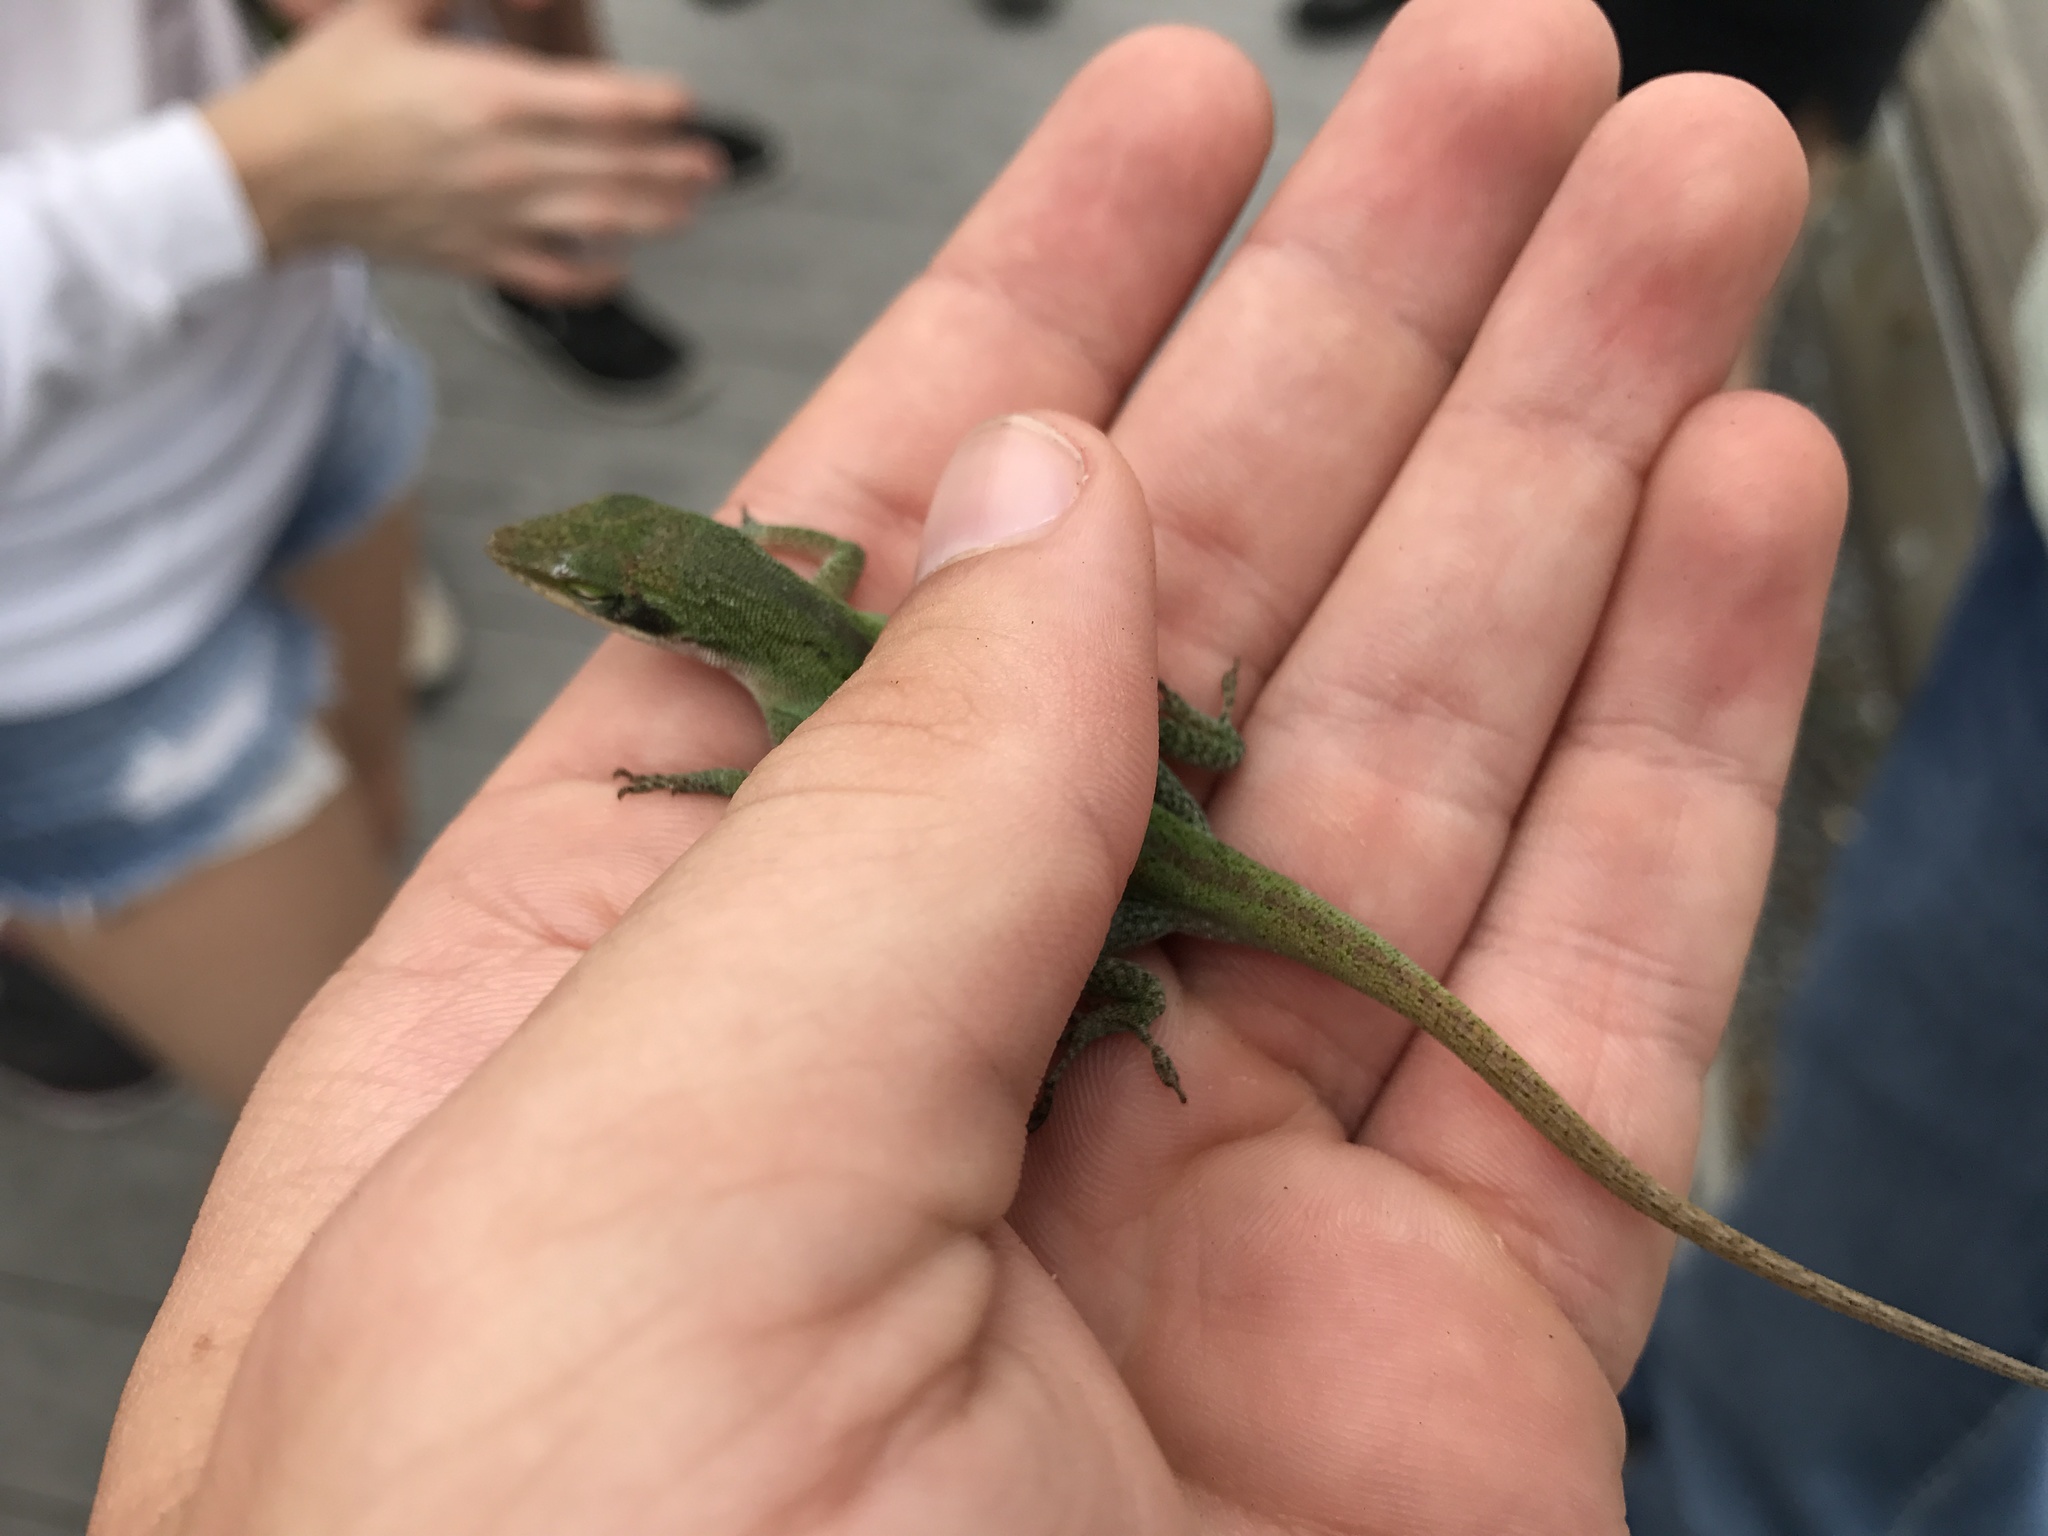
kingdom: Animalia
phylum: Chordata
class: Squamata
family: Dactyloidae
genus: Anolis
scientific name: Anolis carolinensis
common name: Green anole
